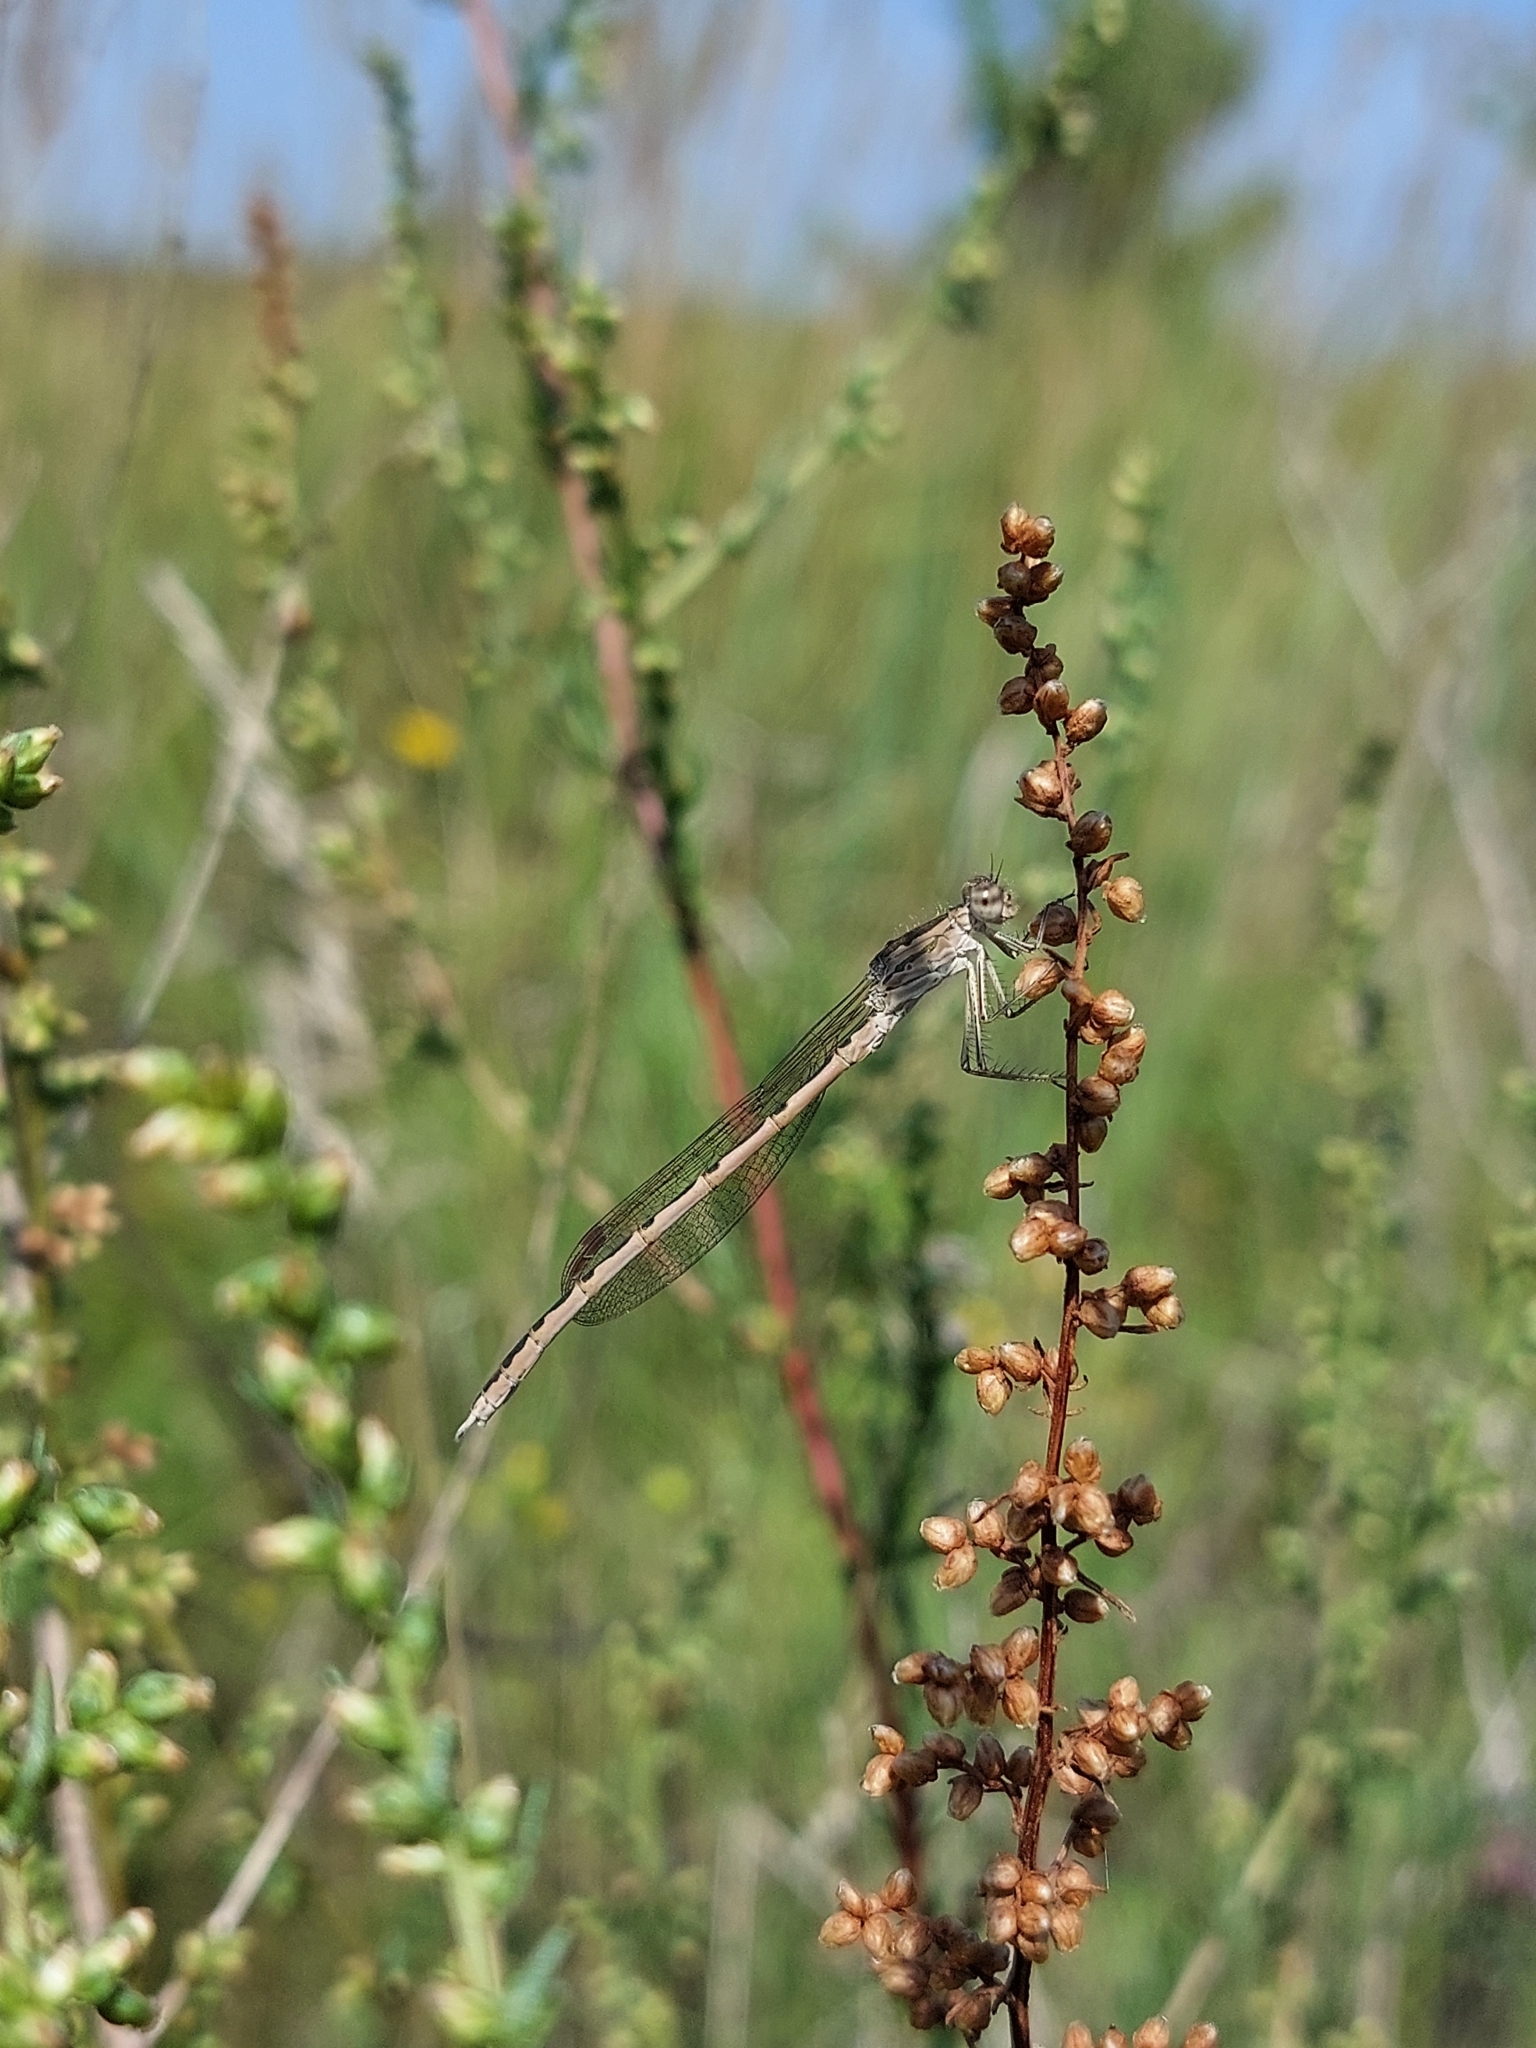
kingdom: Animalia
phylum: Arthropoda
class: Insecta
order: Odonata
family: Lestidae
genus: Sympecma
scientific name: Sympecma paedisca
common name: Siberian winter damsel
